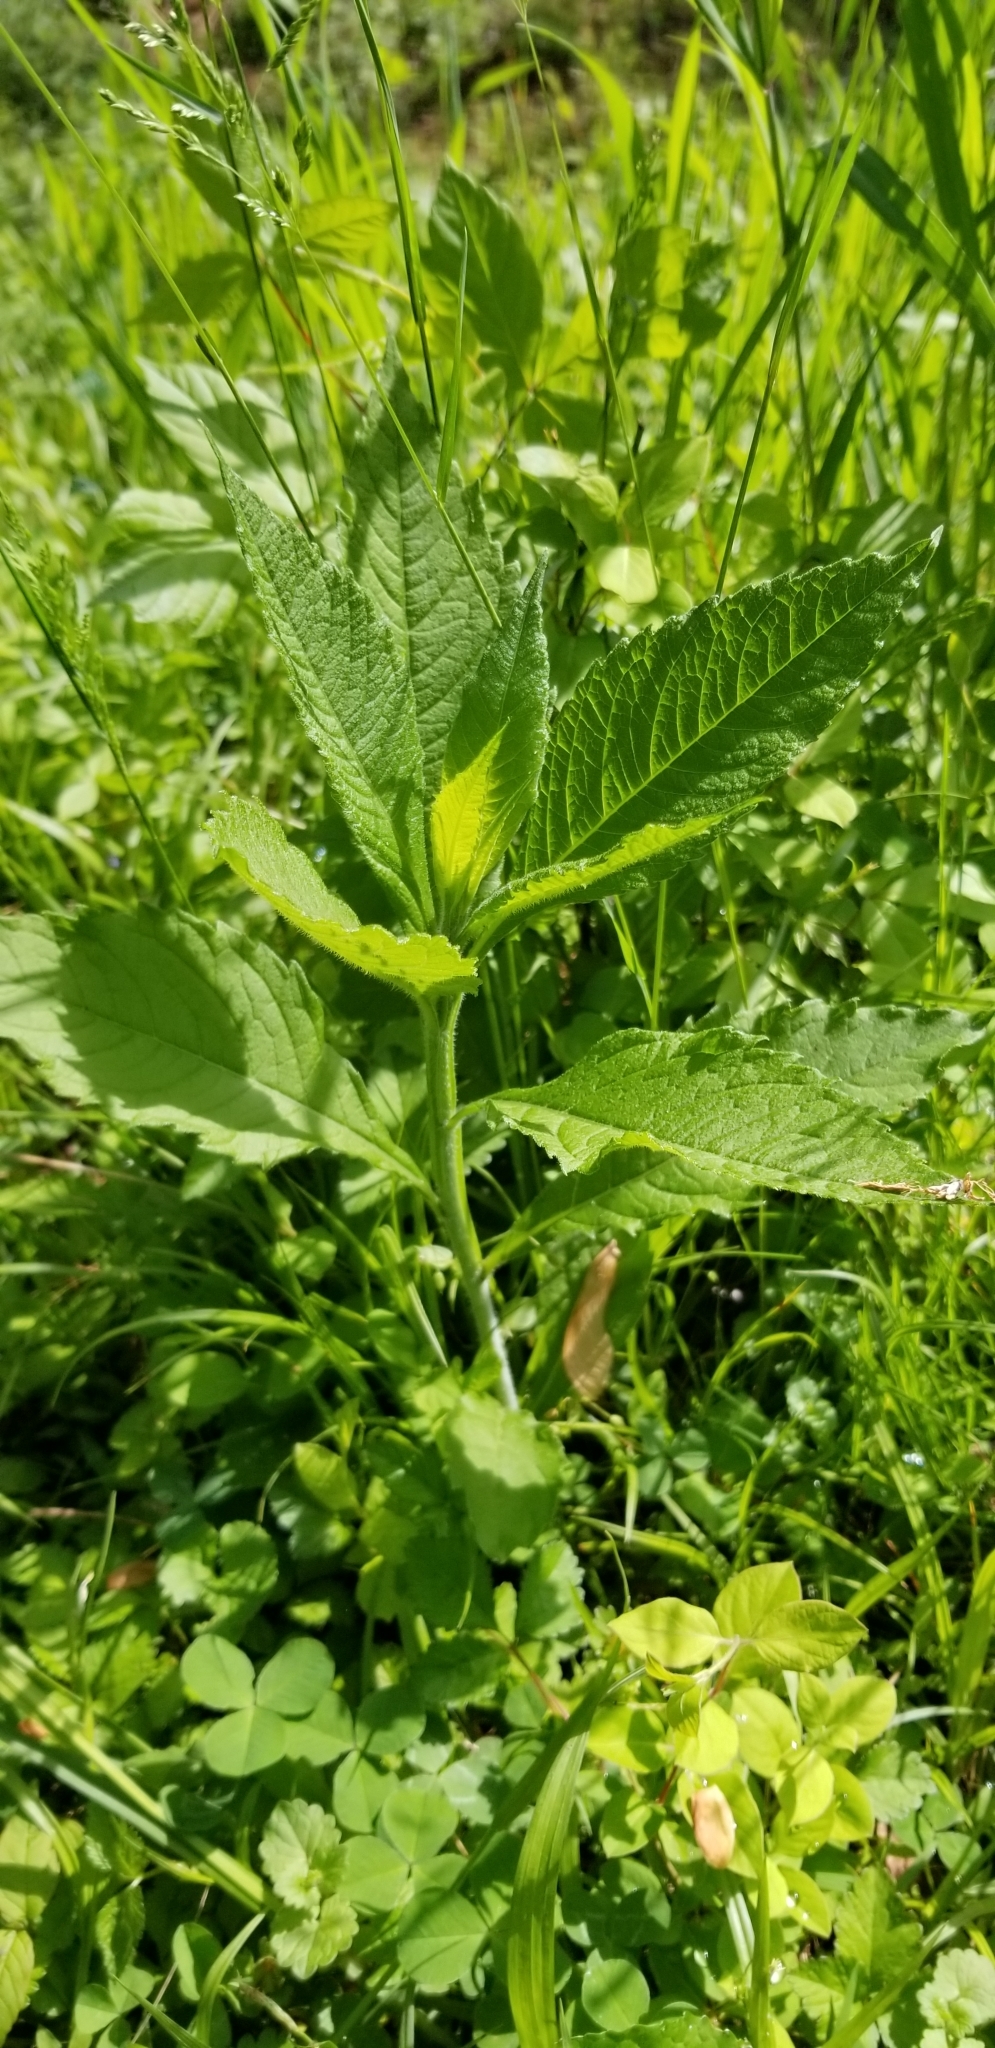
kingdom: Plantae
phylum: Tracheophyta
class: Magnoliopsida
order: Asterales
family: Asteraceae
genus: Verbesina
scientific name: Verbesina alternifolia
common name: Wingstem
